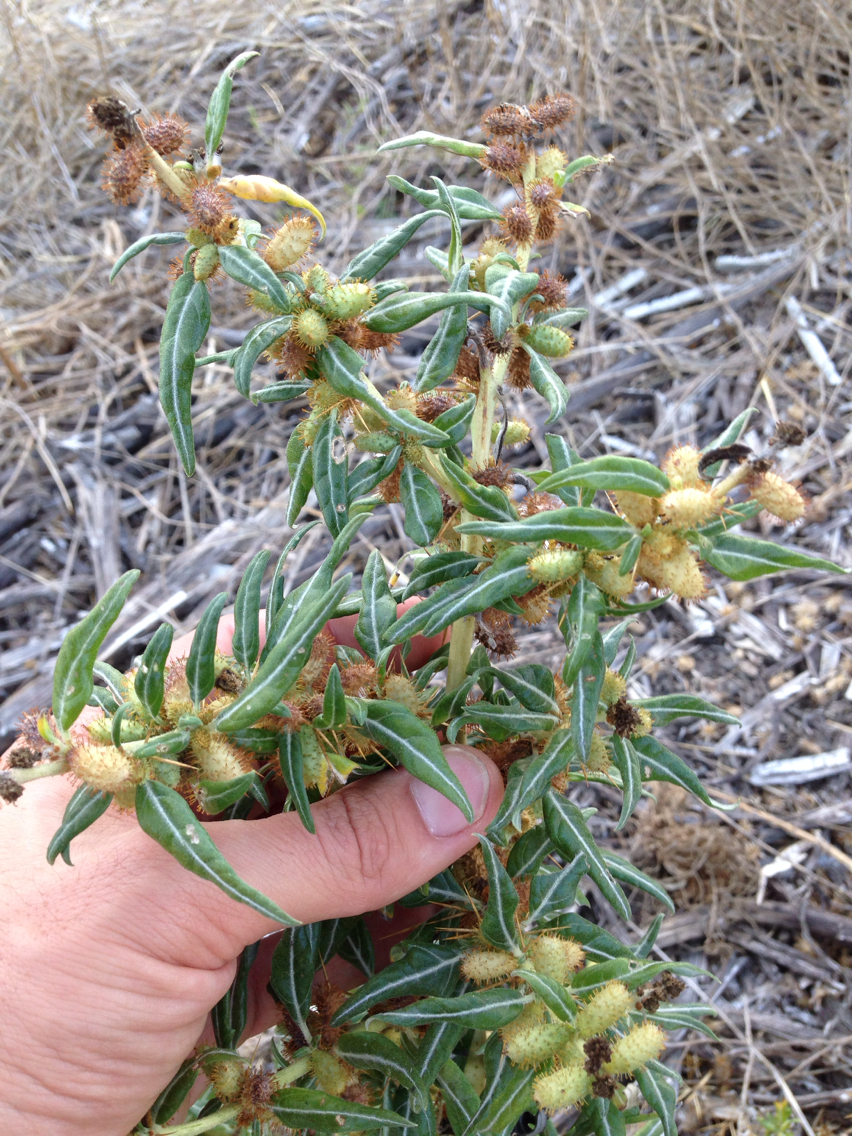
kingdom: Plantae
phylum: Tracheophyta
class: Magnoliopsida
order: Asterales
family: Asteraceae
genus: Xanthium
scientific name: Xanthium spinosum
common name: Spiny cocklebur
